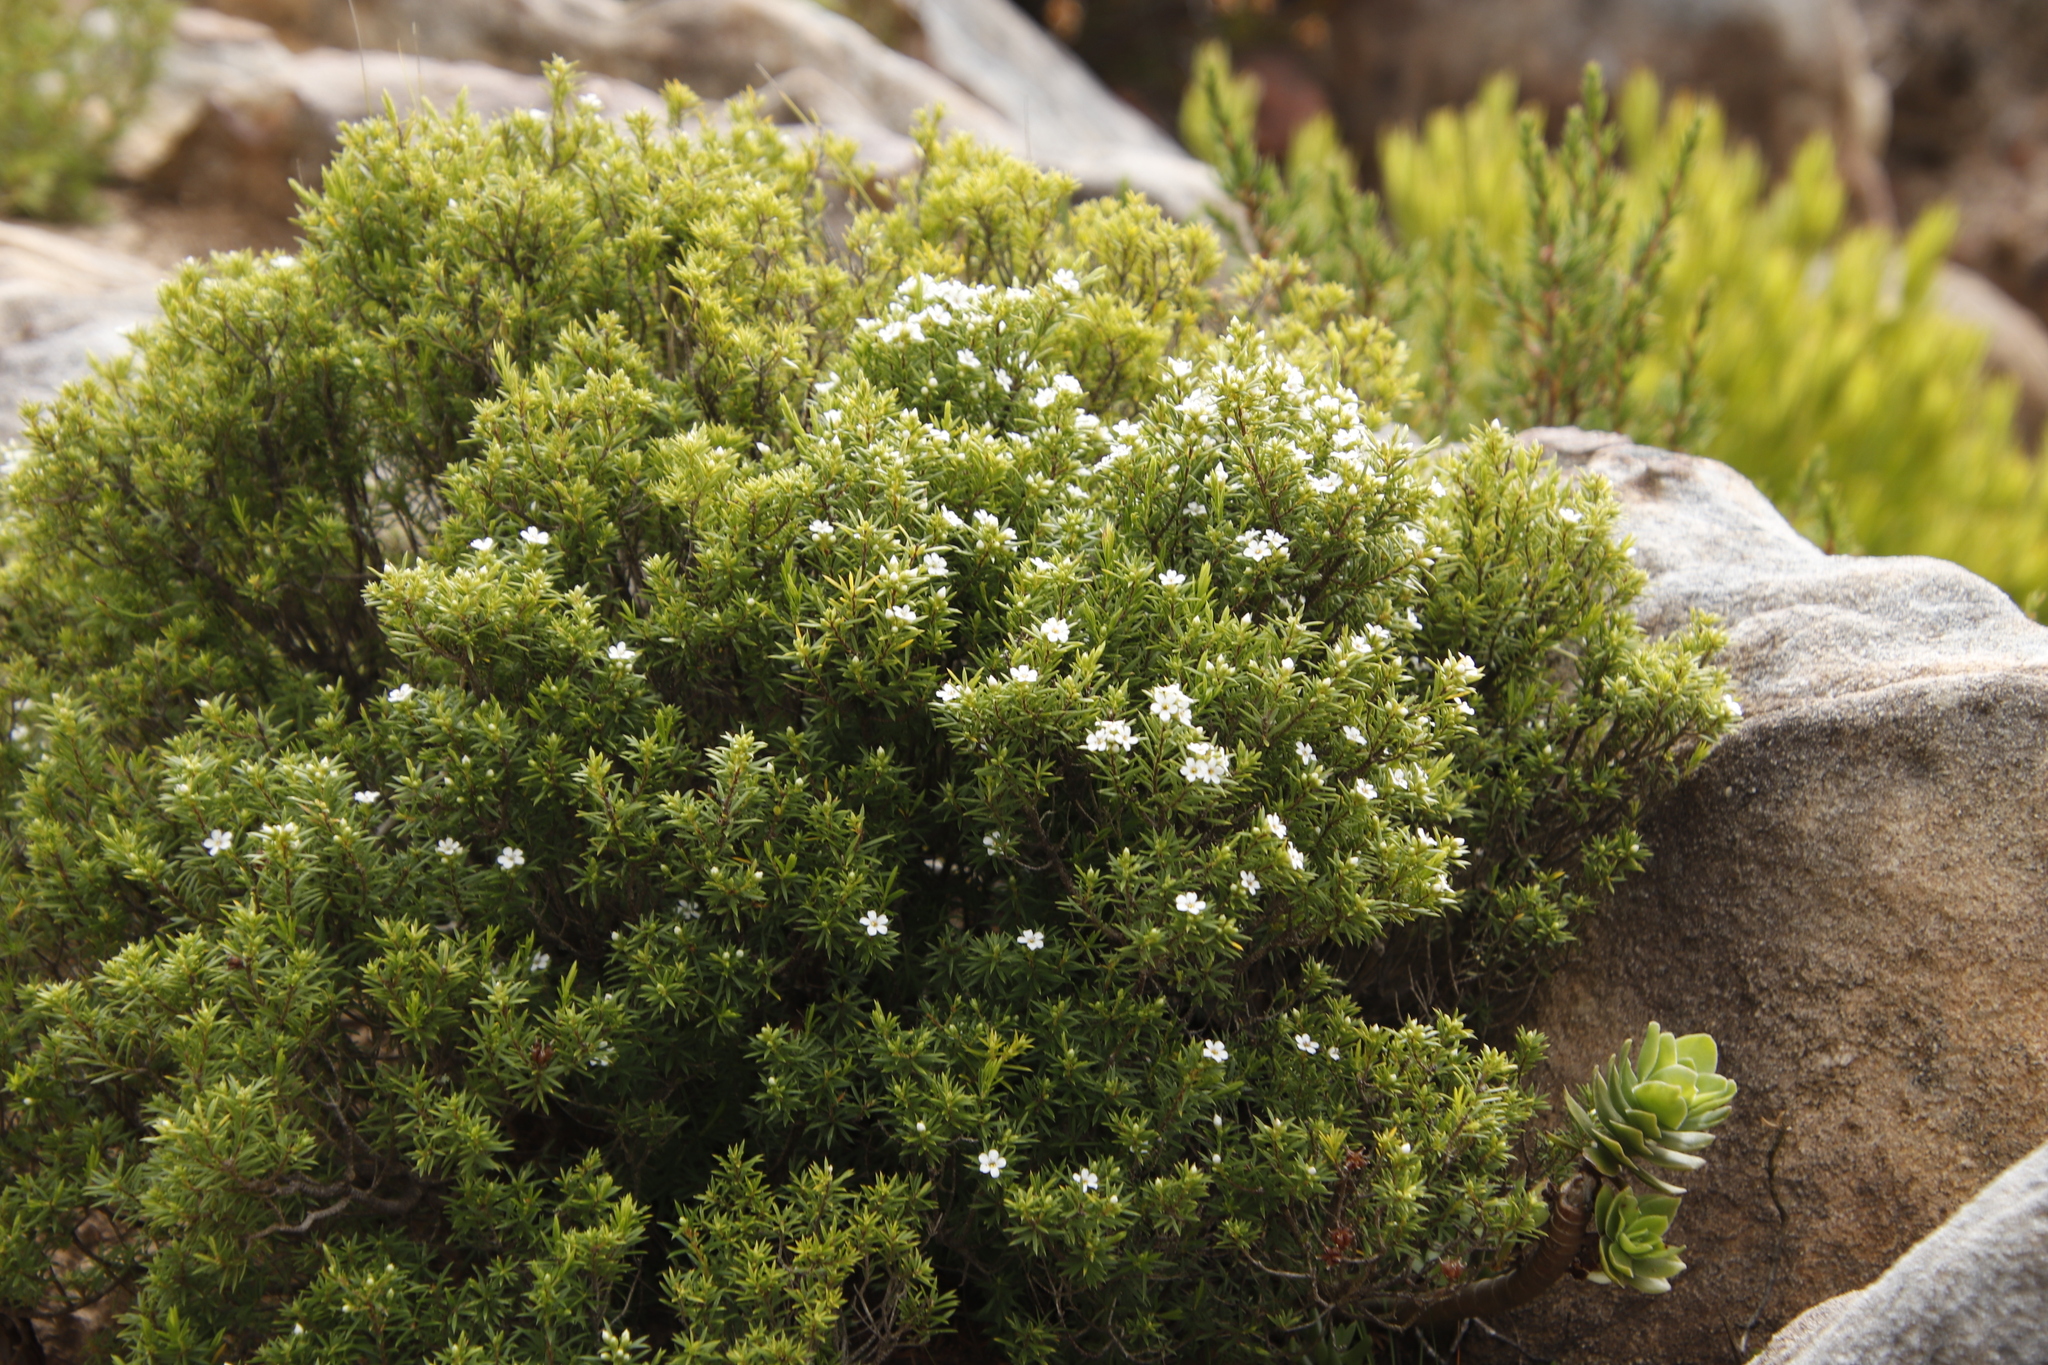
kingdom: Plantae
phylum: Tracheophyta
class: Magnoliopsida
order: Sapindales
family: Rutaceae
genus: Coleonema
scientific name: Coleonema album
